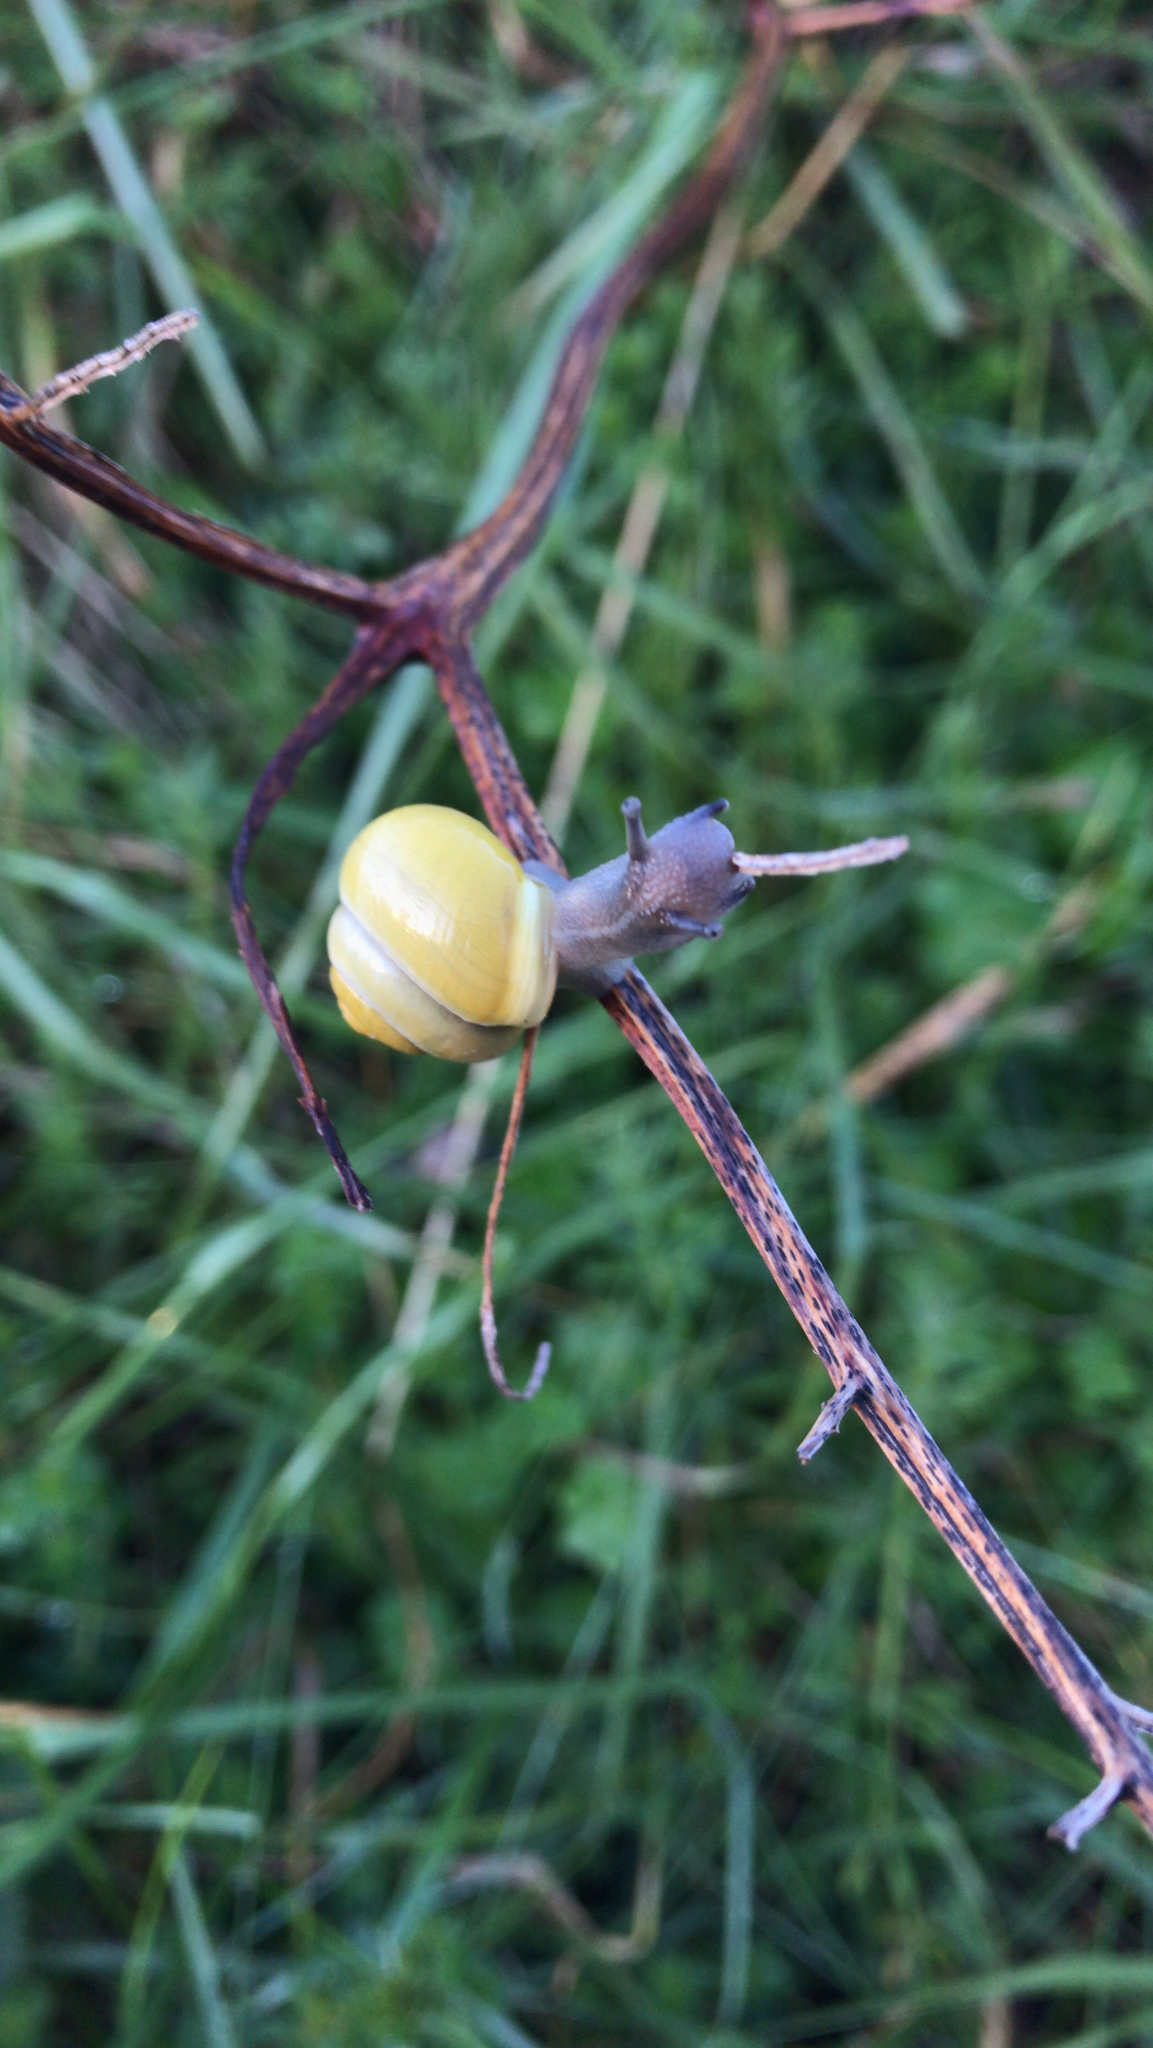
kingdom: Animalia
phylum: Mollusca
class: Gastropoda
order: Stylommatophora
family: Helicidae
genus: Cepaea
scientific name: Cepaea hortensis
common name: White-lip gardensnail
